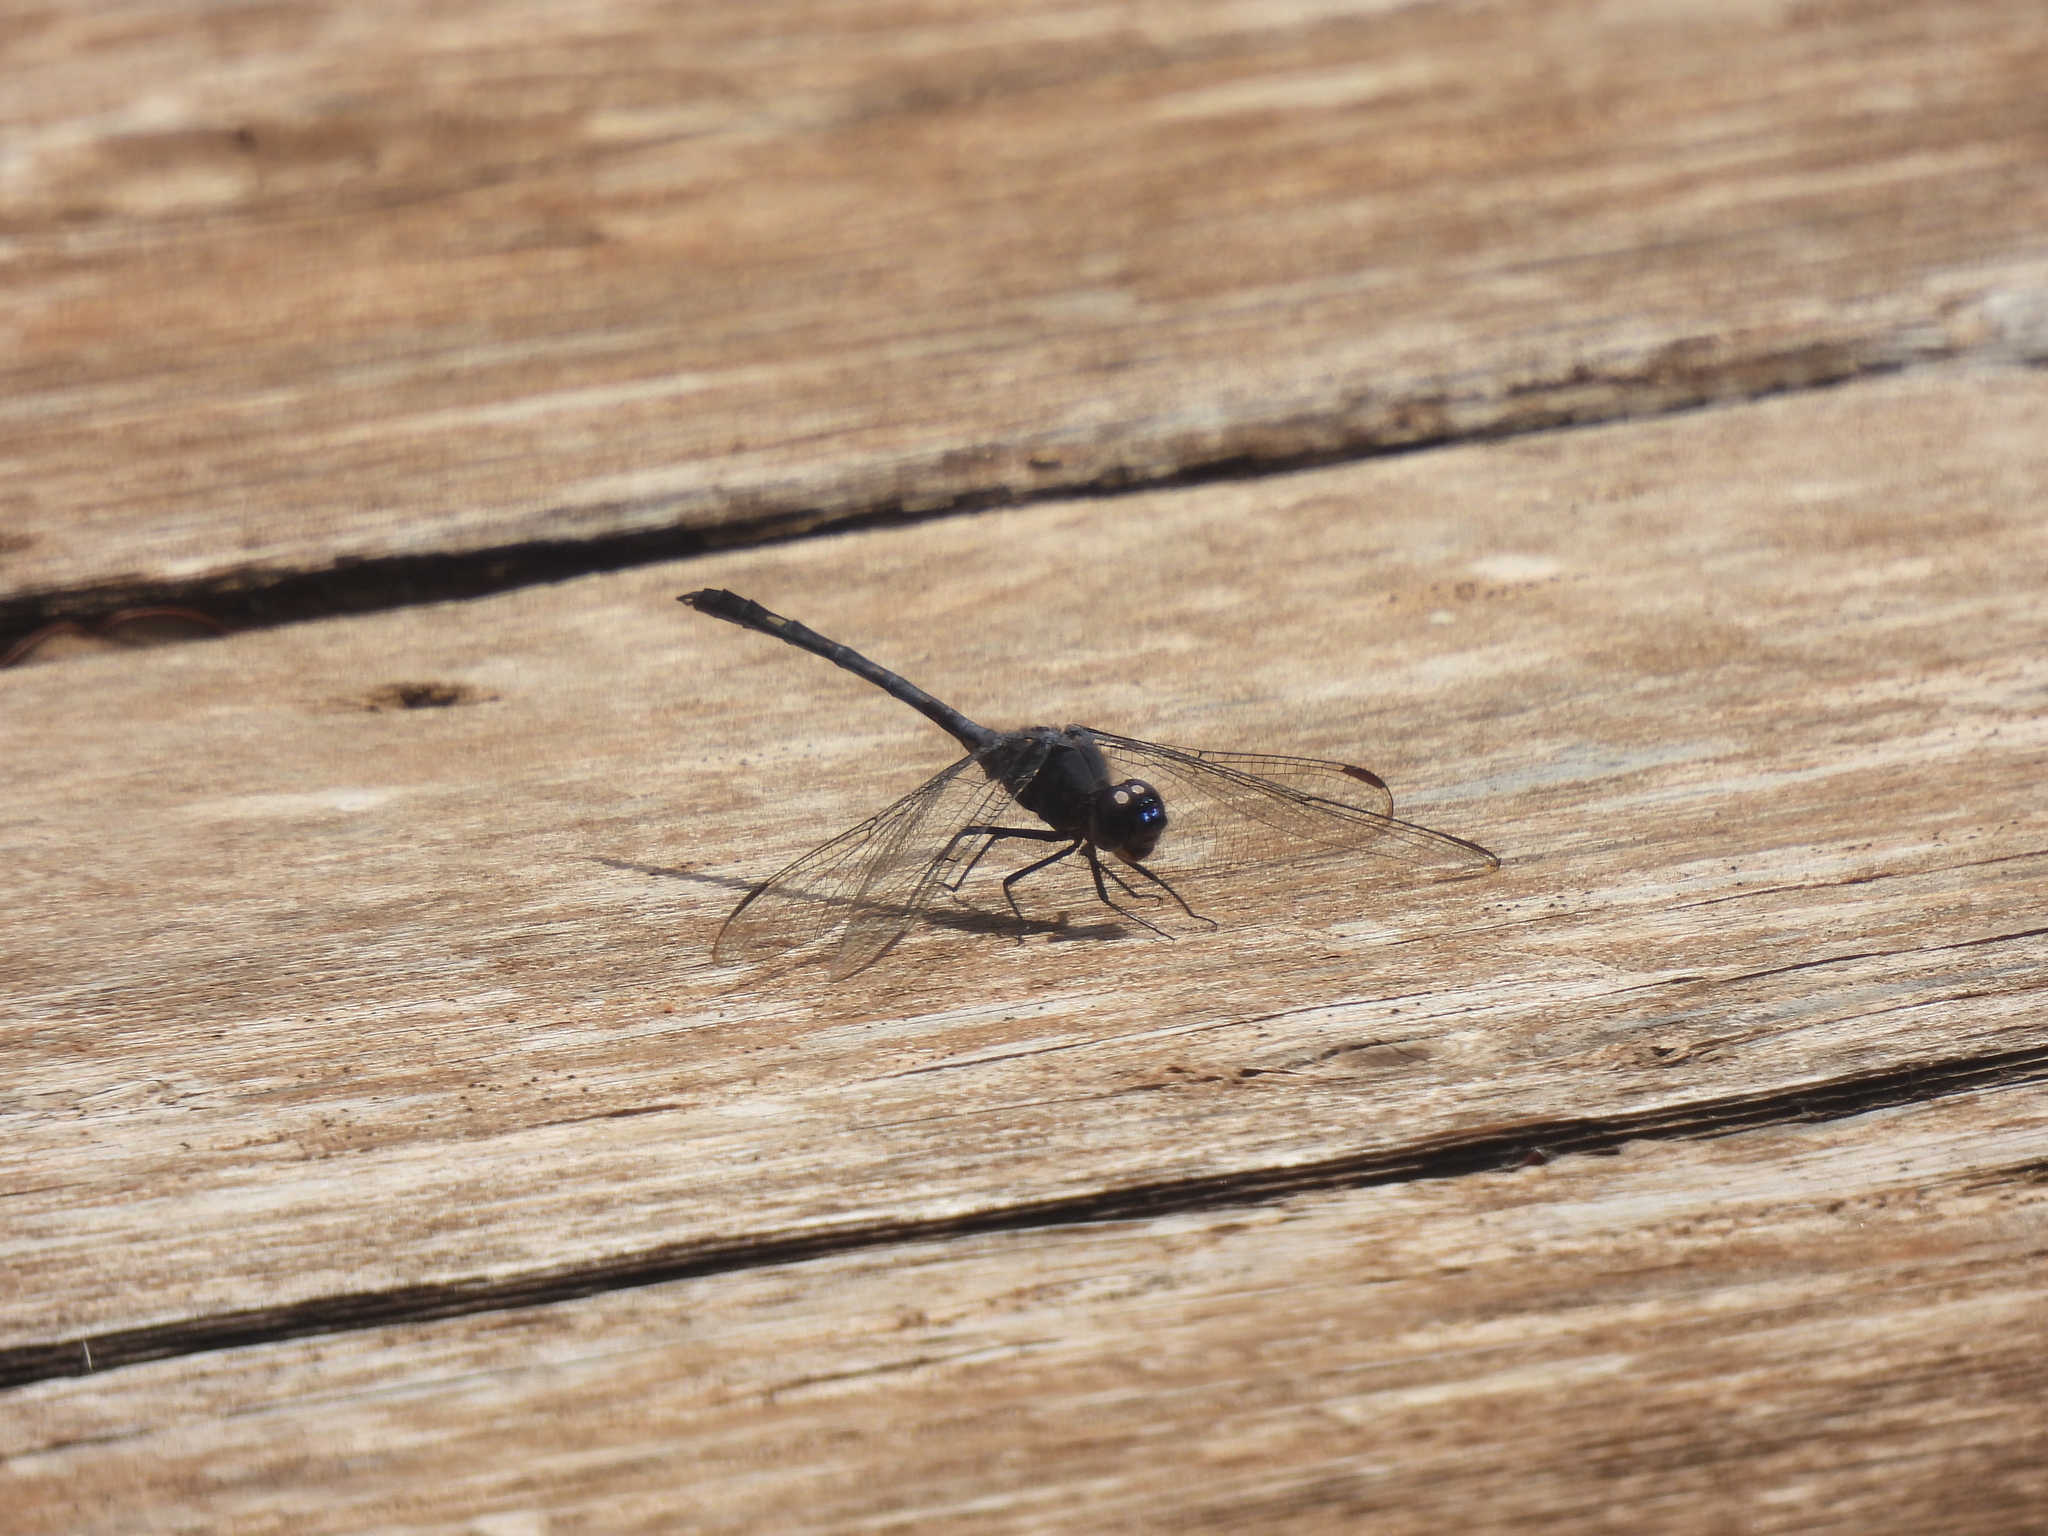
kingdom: Animalia
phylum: Arthropoda
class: Insecta
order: Odonata
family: Libellulidae
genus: Dythemis
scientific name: Dythemis nigrescens
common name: Black setwing
